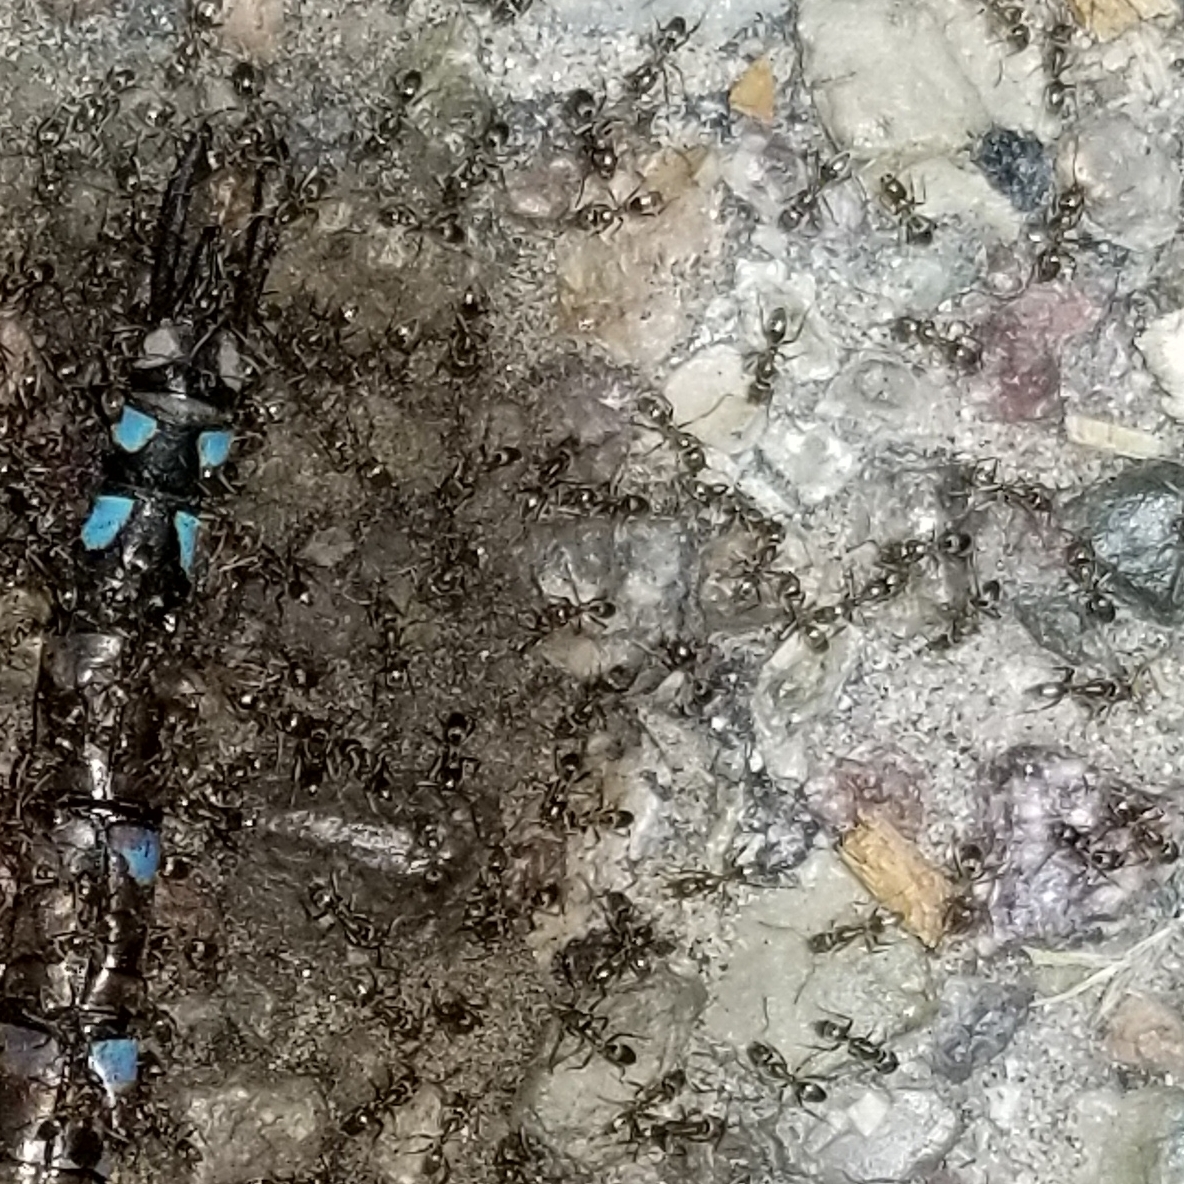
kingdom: Animalia
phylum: Arthropoda
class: Insecta
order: Hymenoptera
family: Formicidae
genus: Linepithema
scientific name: Linepithema humile
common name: Argentine ant
